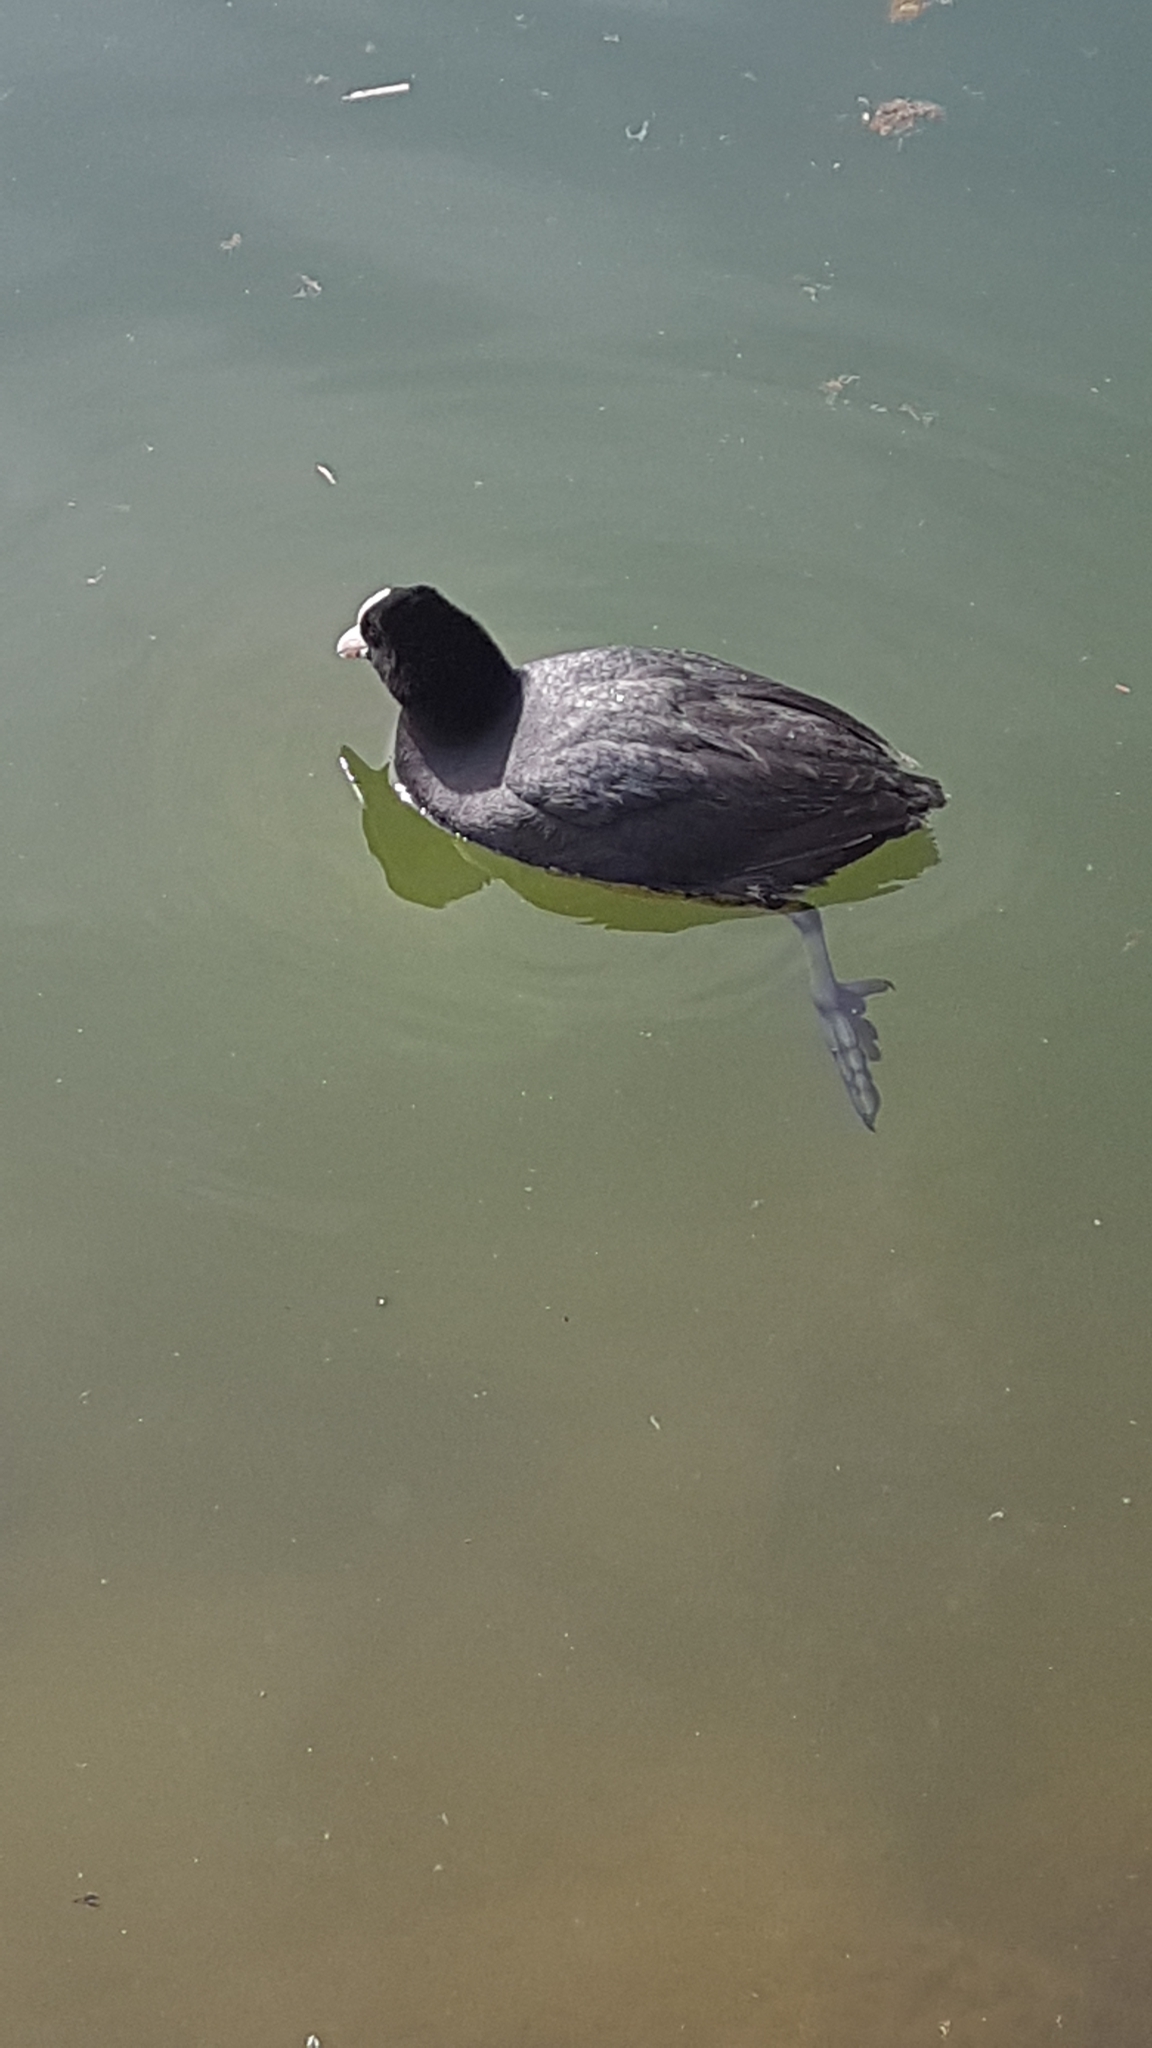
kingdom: Animalia
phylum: Chordata
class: Aves
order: Gruiformes
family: Rallidae
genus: Fulica
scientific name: Fulica atra
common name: Eurasian coot
